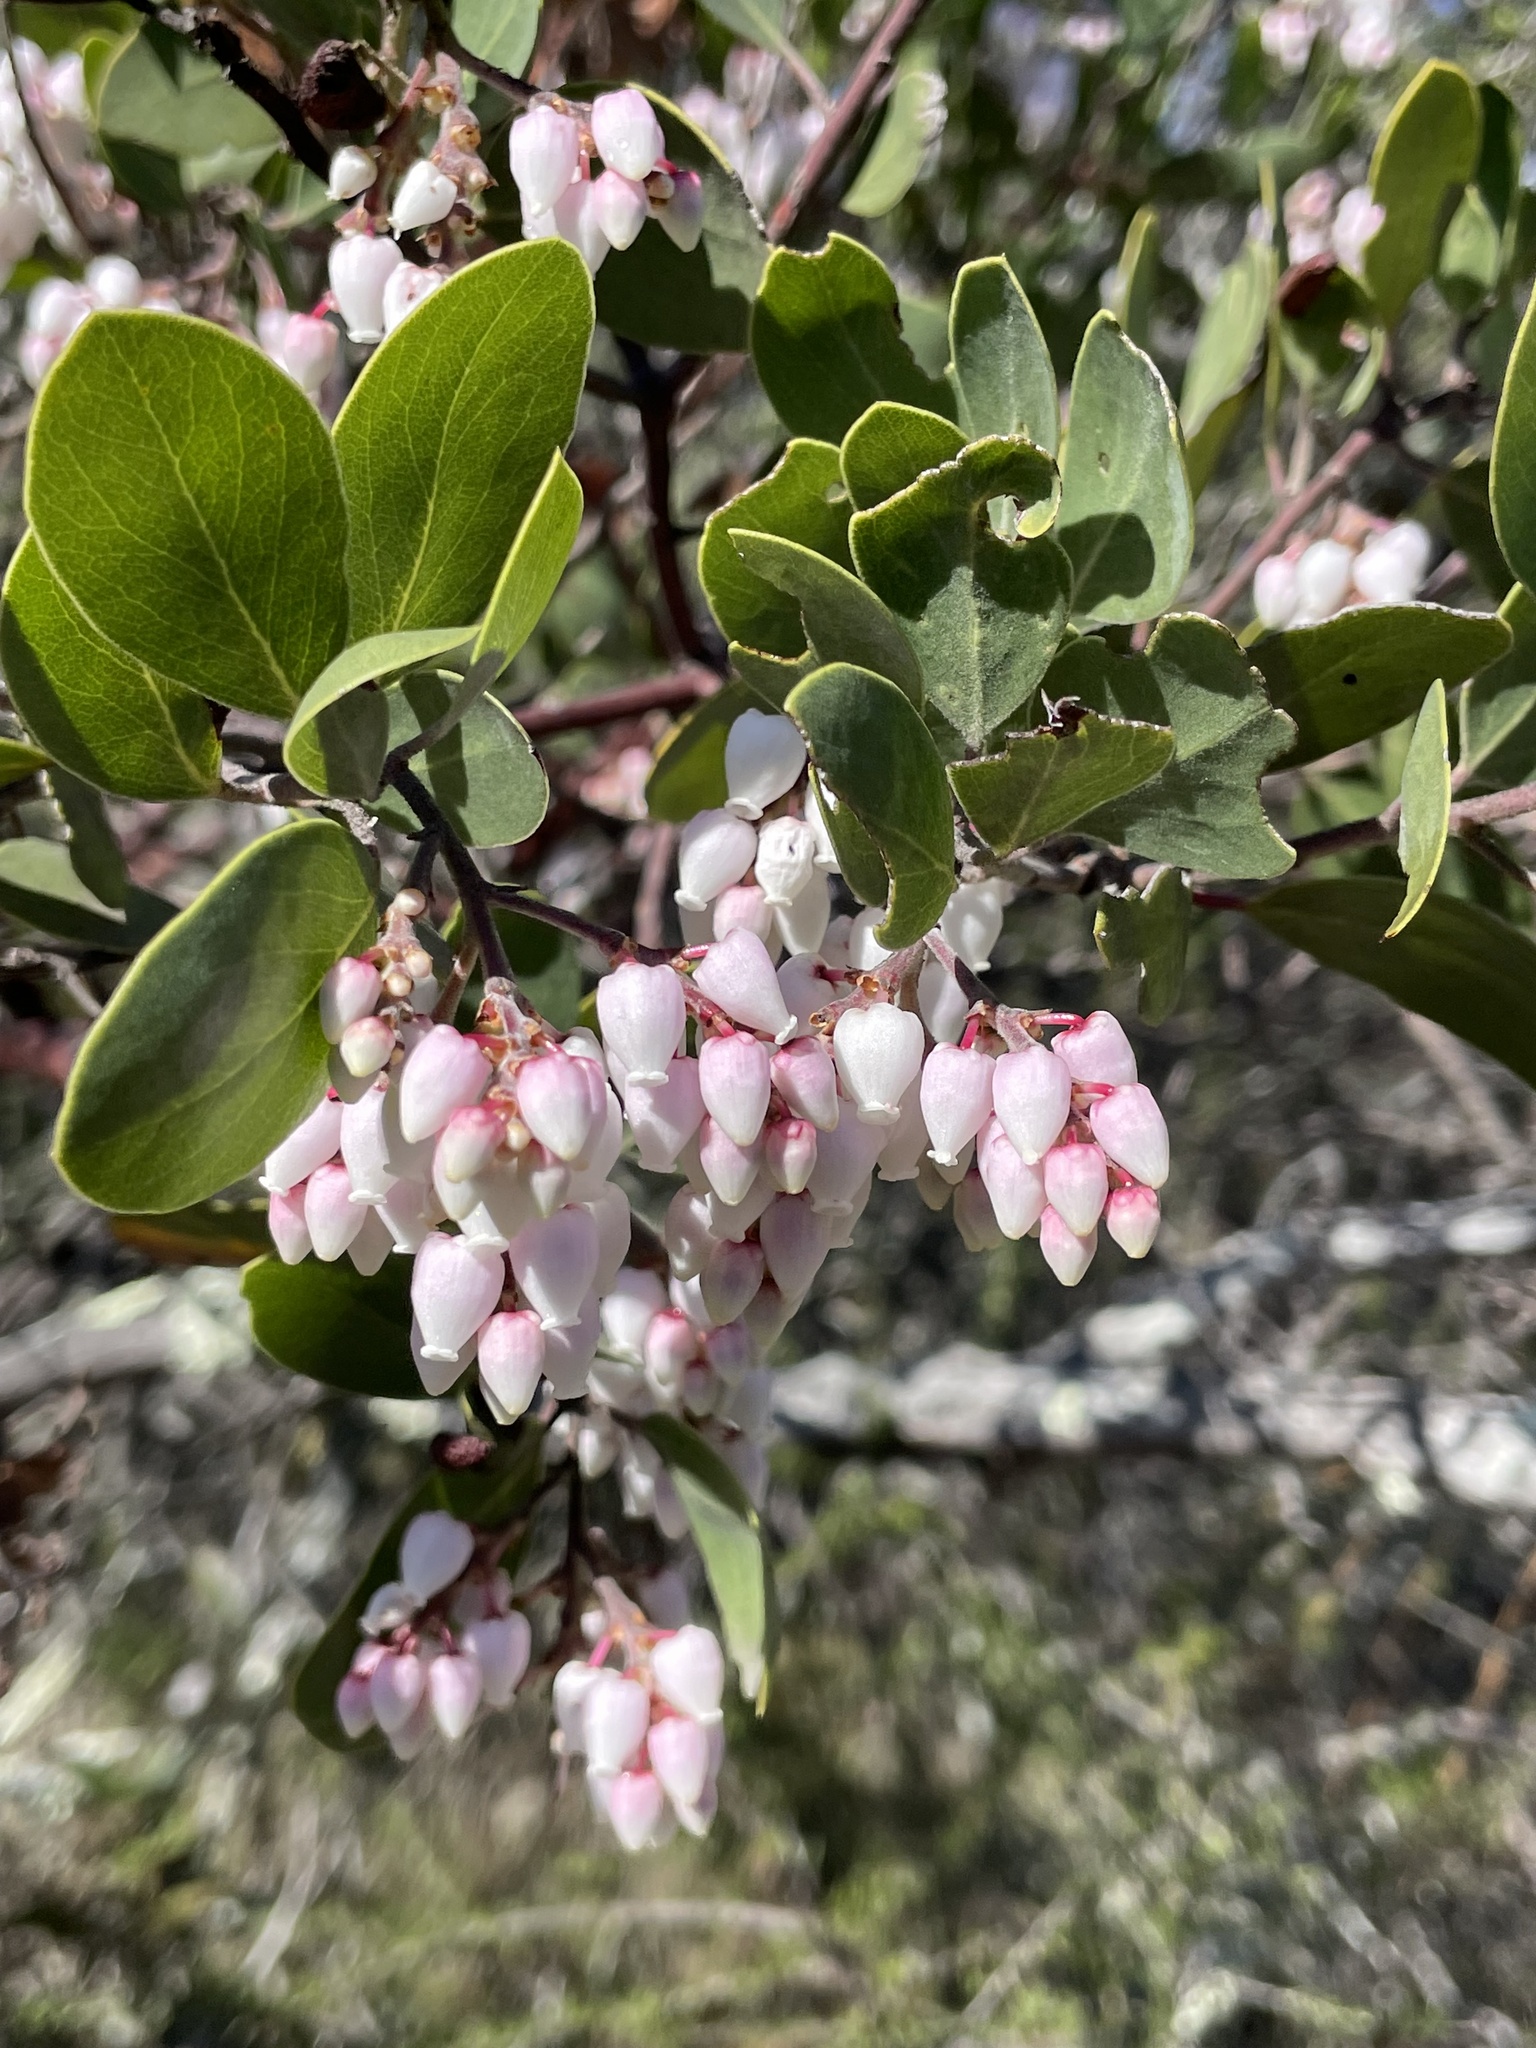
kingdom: Plantae
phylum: Tracheophyta
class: Magnoliopsida
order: Ericales
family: Ericaceae
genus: Arctostaphylos
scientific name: Arctostaphylos manzanita
